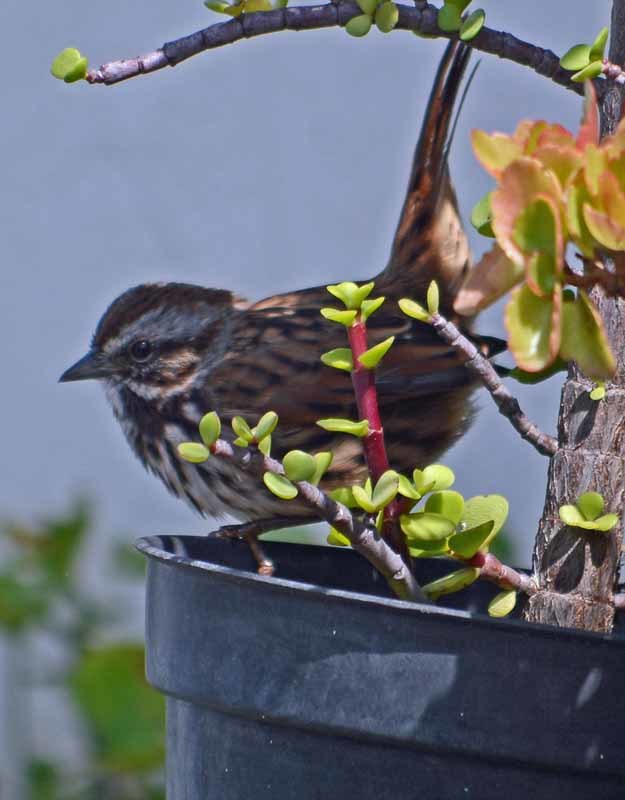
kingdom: Animalia
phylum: Chordata
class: Aves
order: Passeriformes
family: Passerellidae
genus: Melospiza
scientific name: Melospiza melodia
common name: Song sparrow
